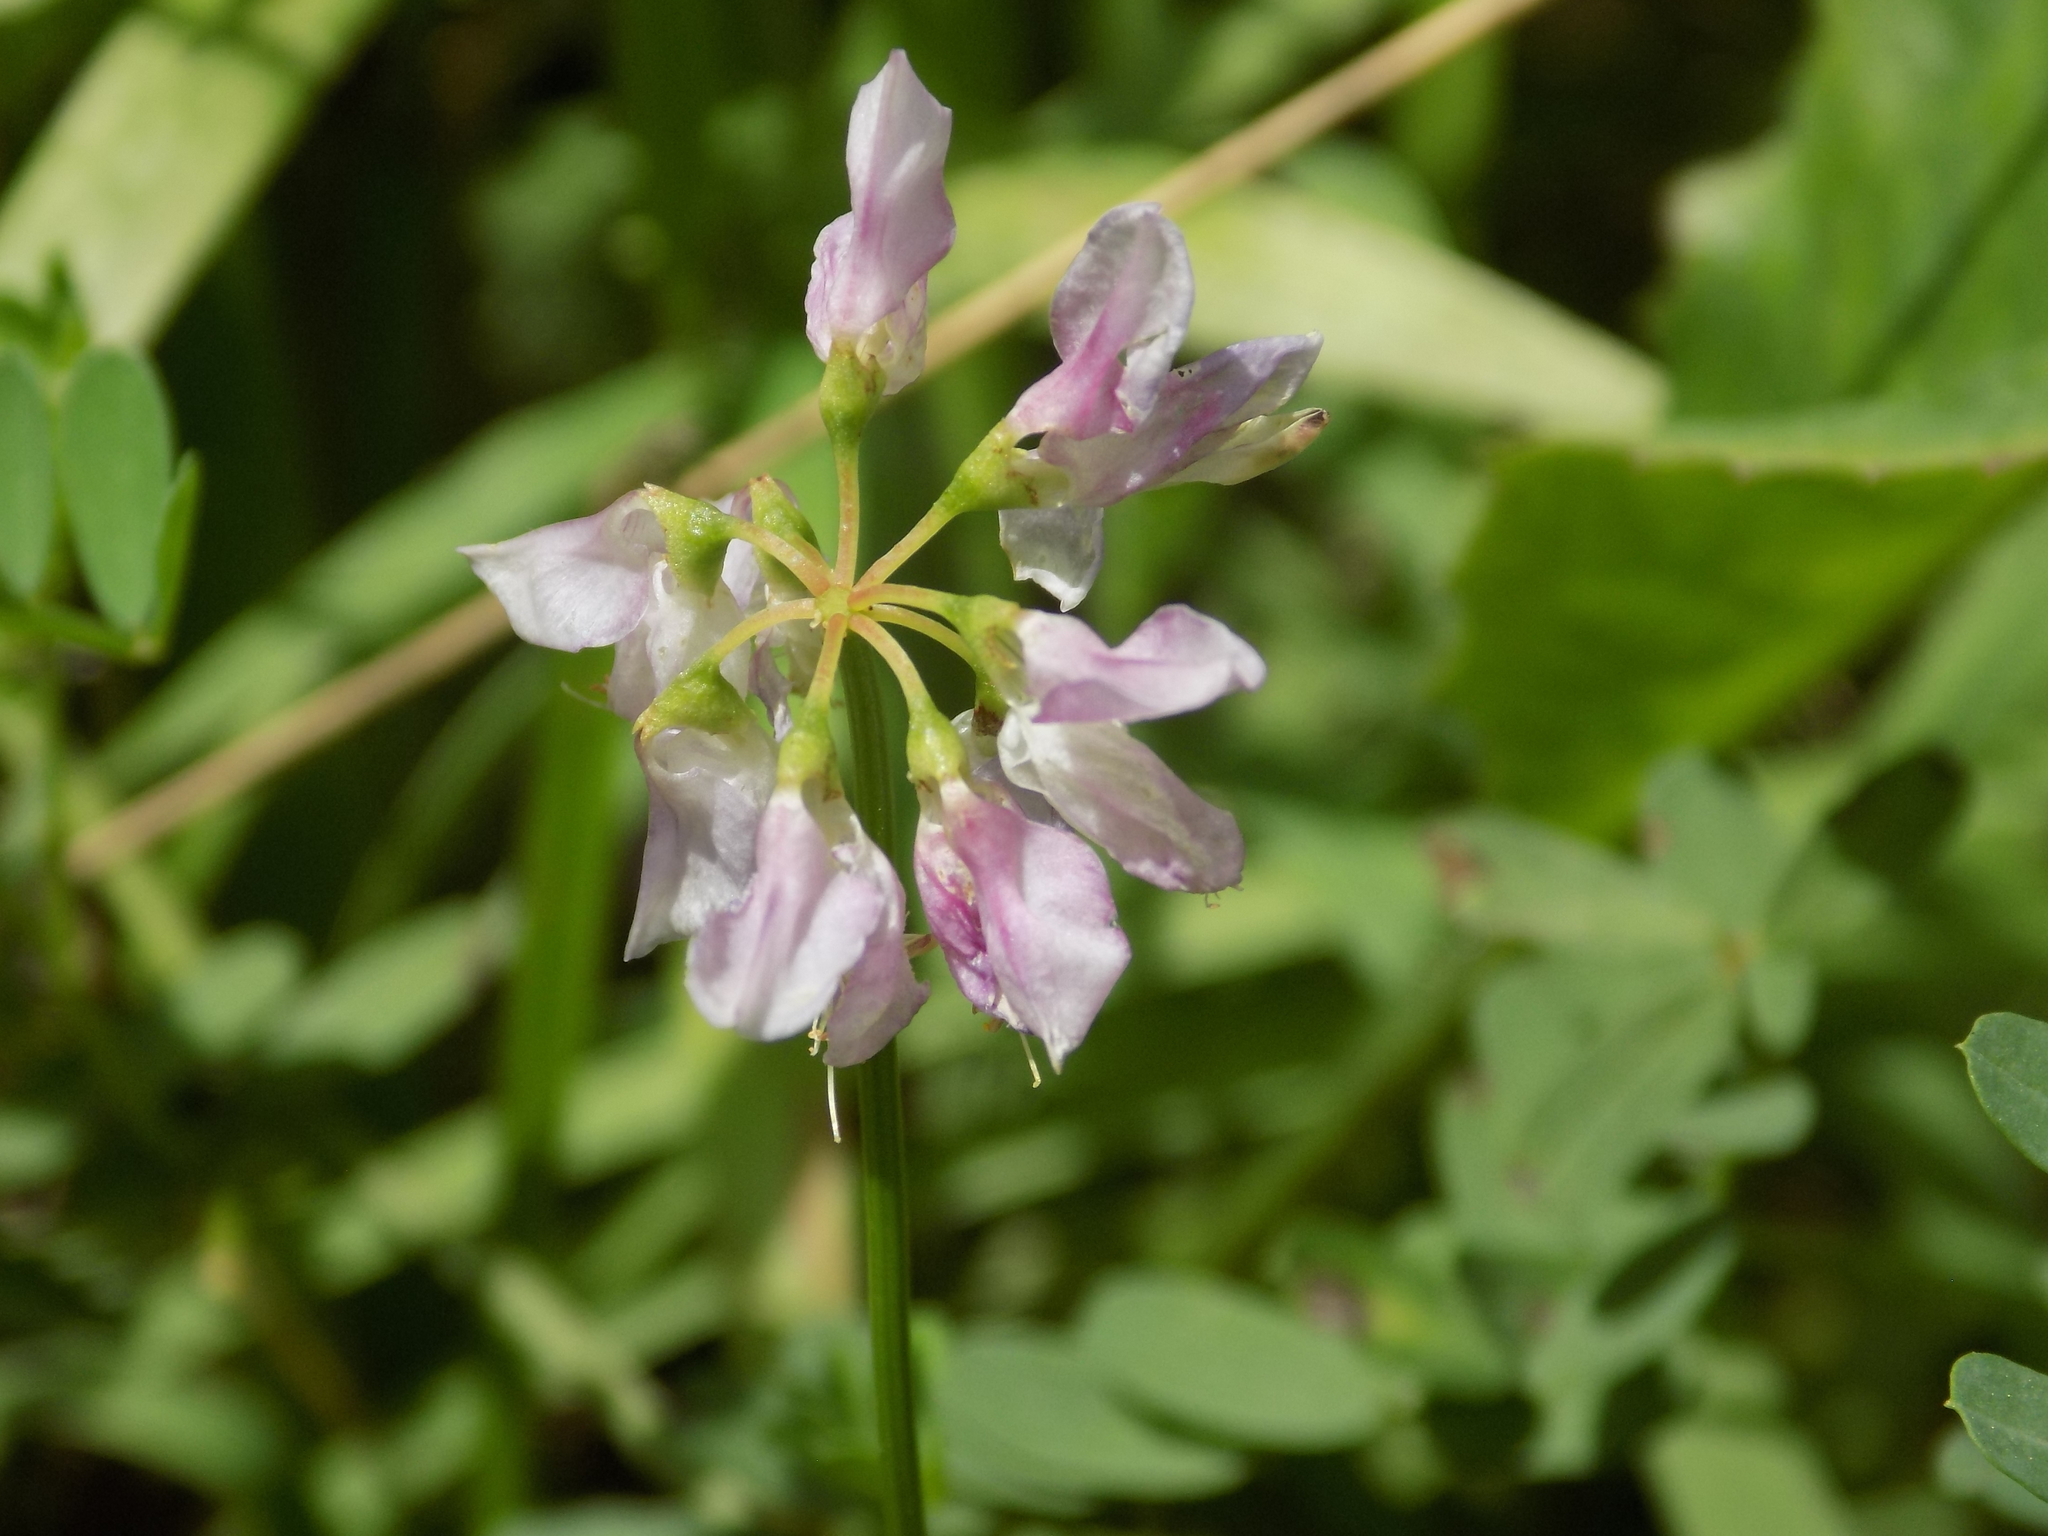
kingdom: Plantae
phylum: Tracheophyta
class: Magnoliopsida
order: Fabales
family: Fabaceae
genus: Coronilla
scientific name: Coronilla varia
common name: Crownvetch
